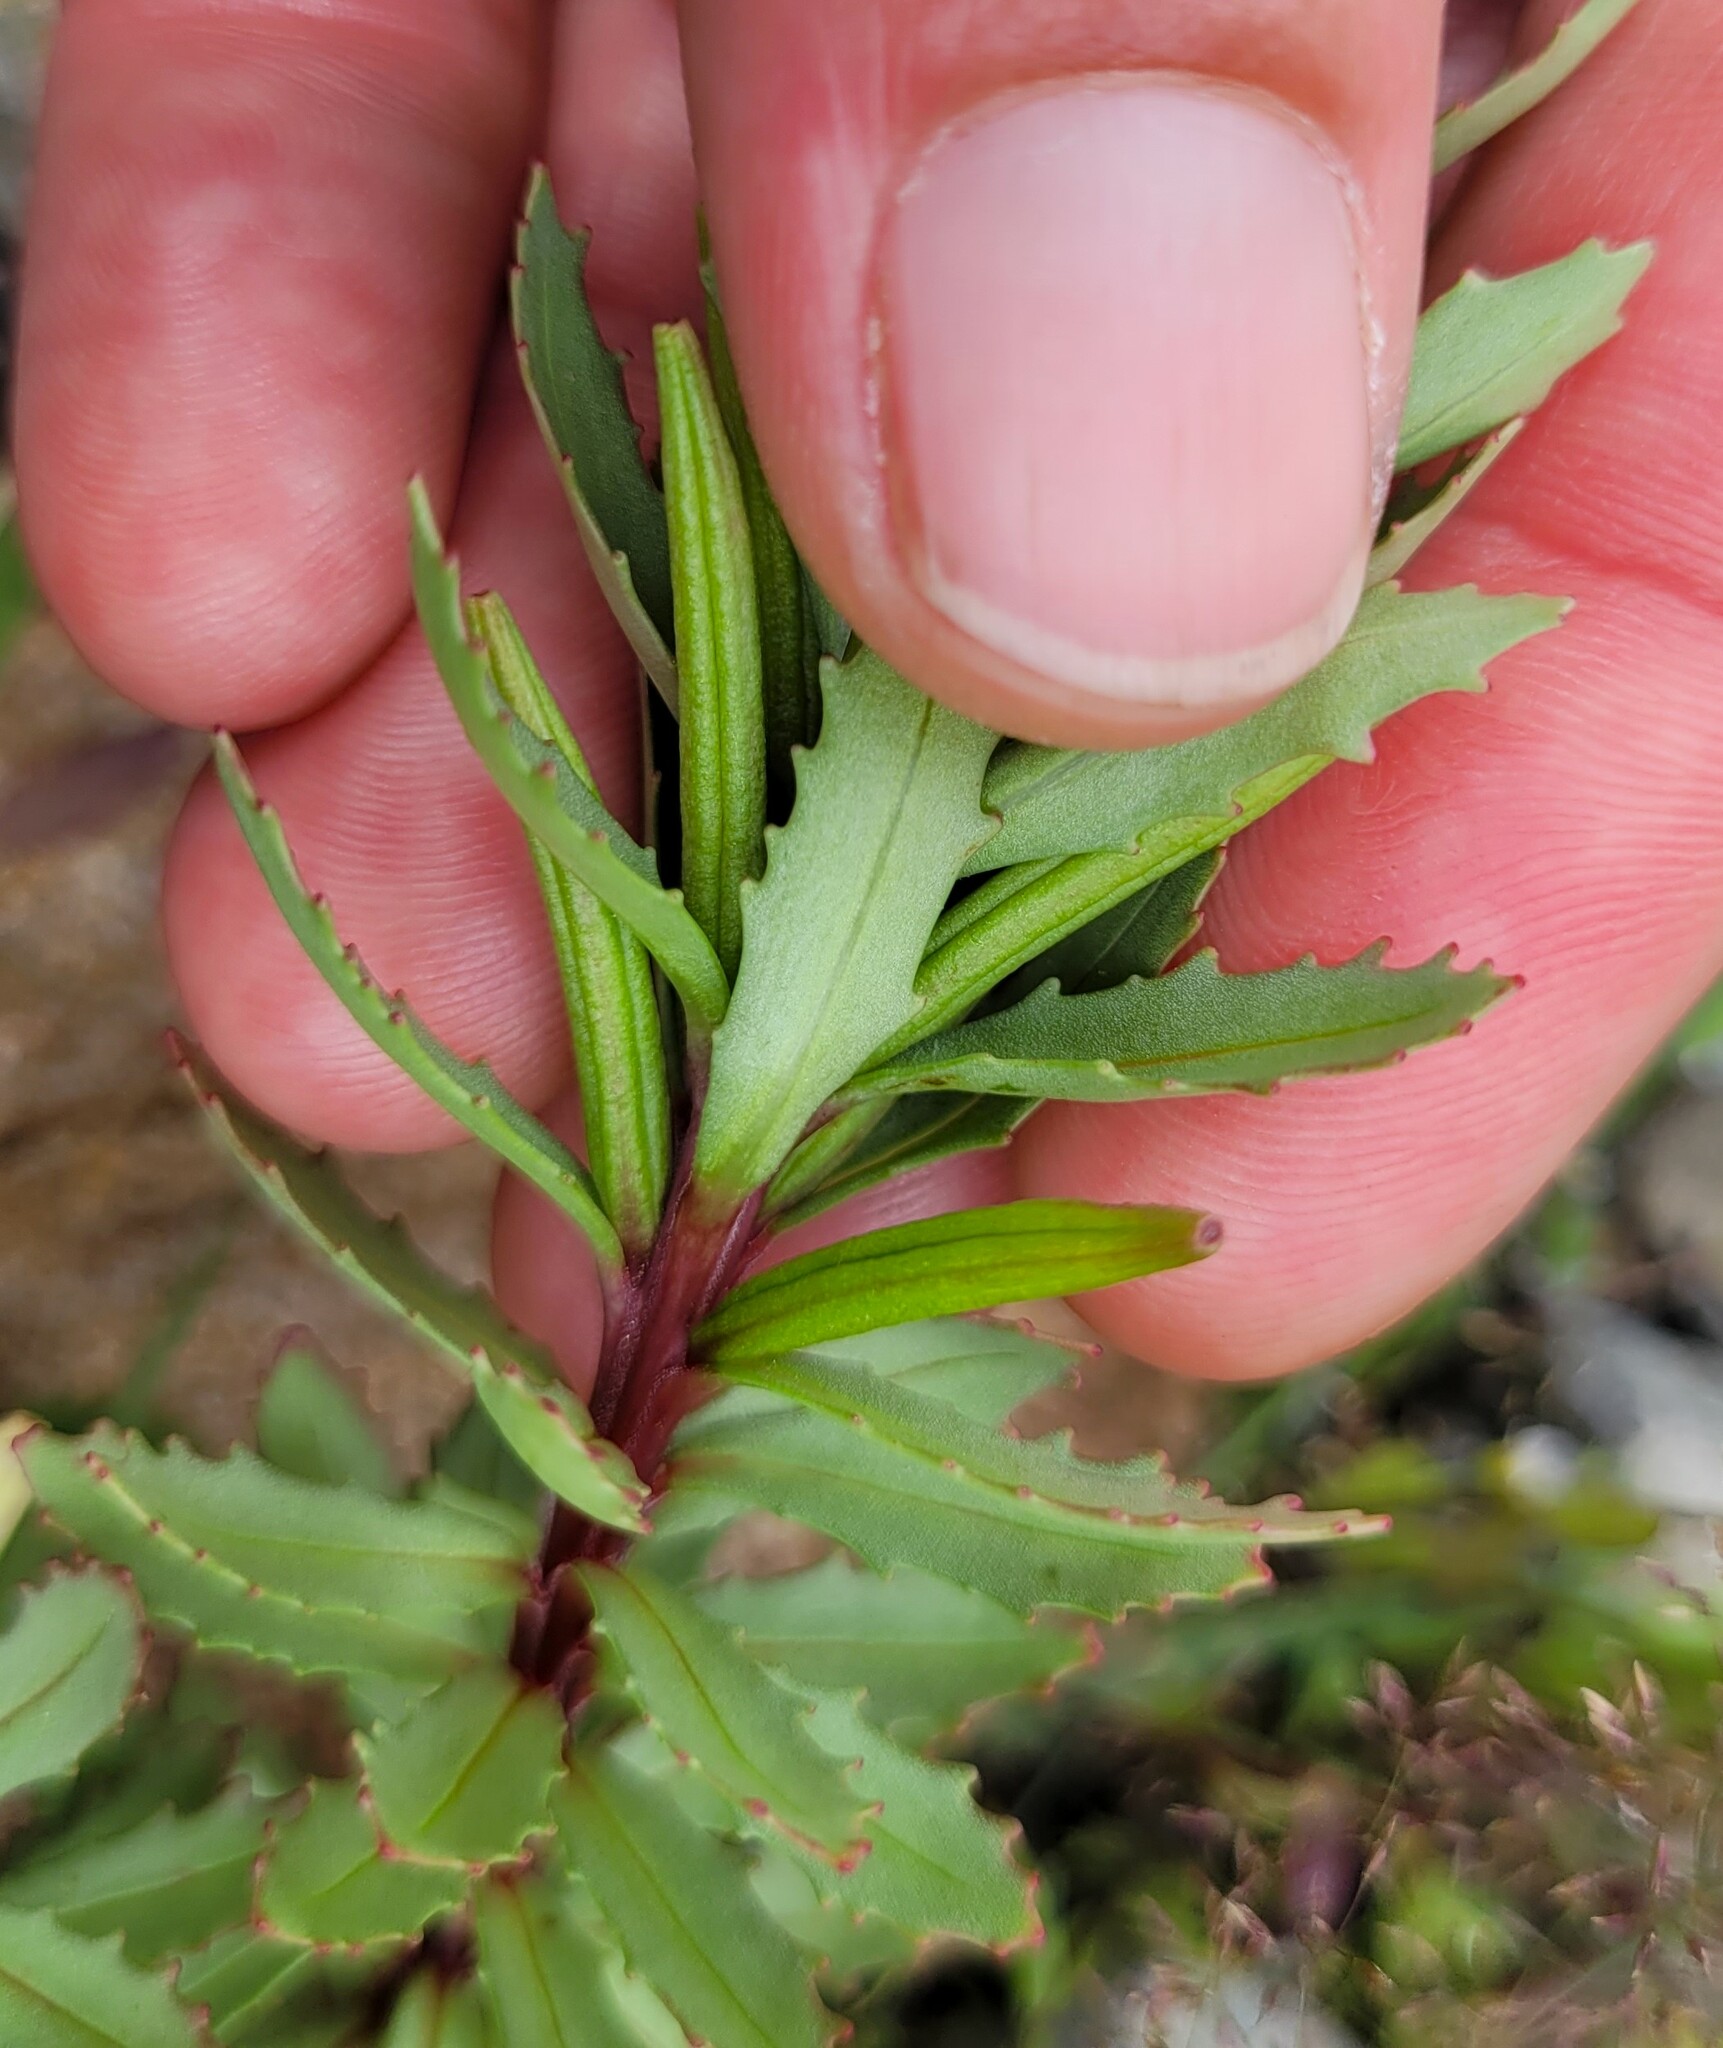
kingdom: Plantae
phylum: Tracheophyta
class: Magnoliopsida
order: Myrtales
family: Onagraceae
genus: Epilobium
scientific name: Epilobium pycnostachyum
